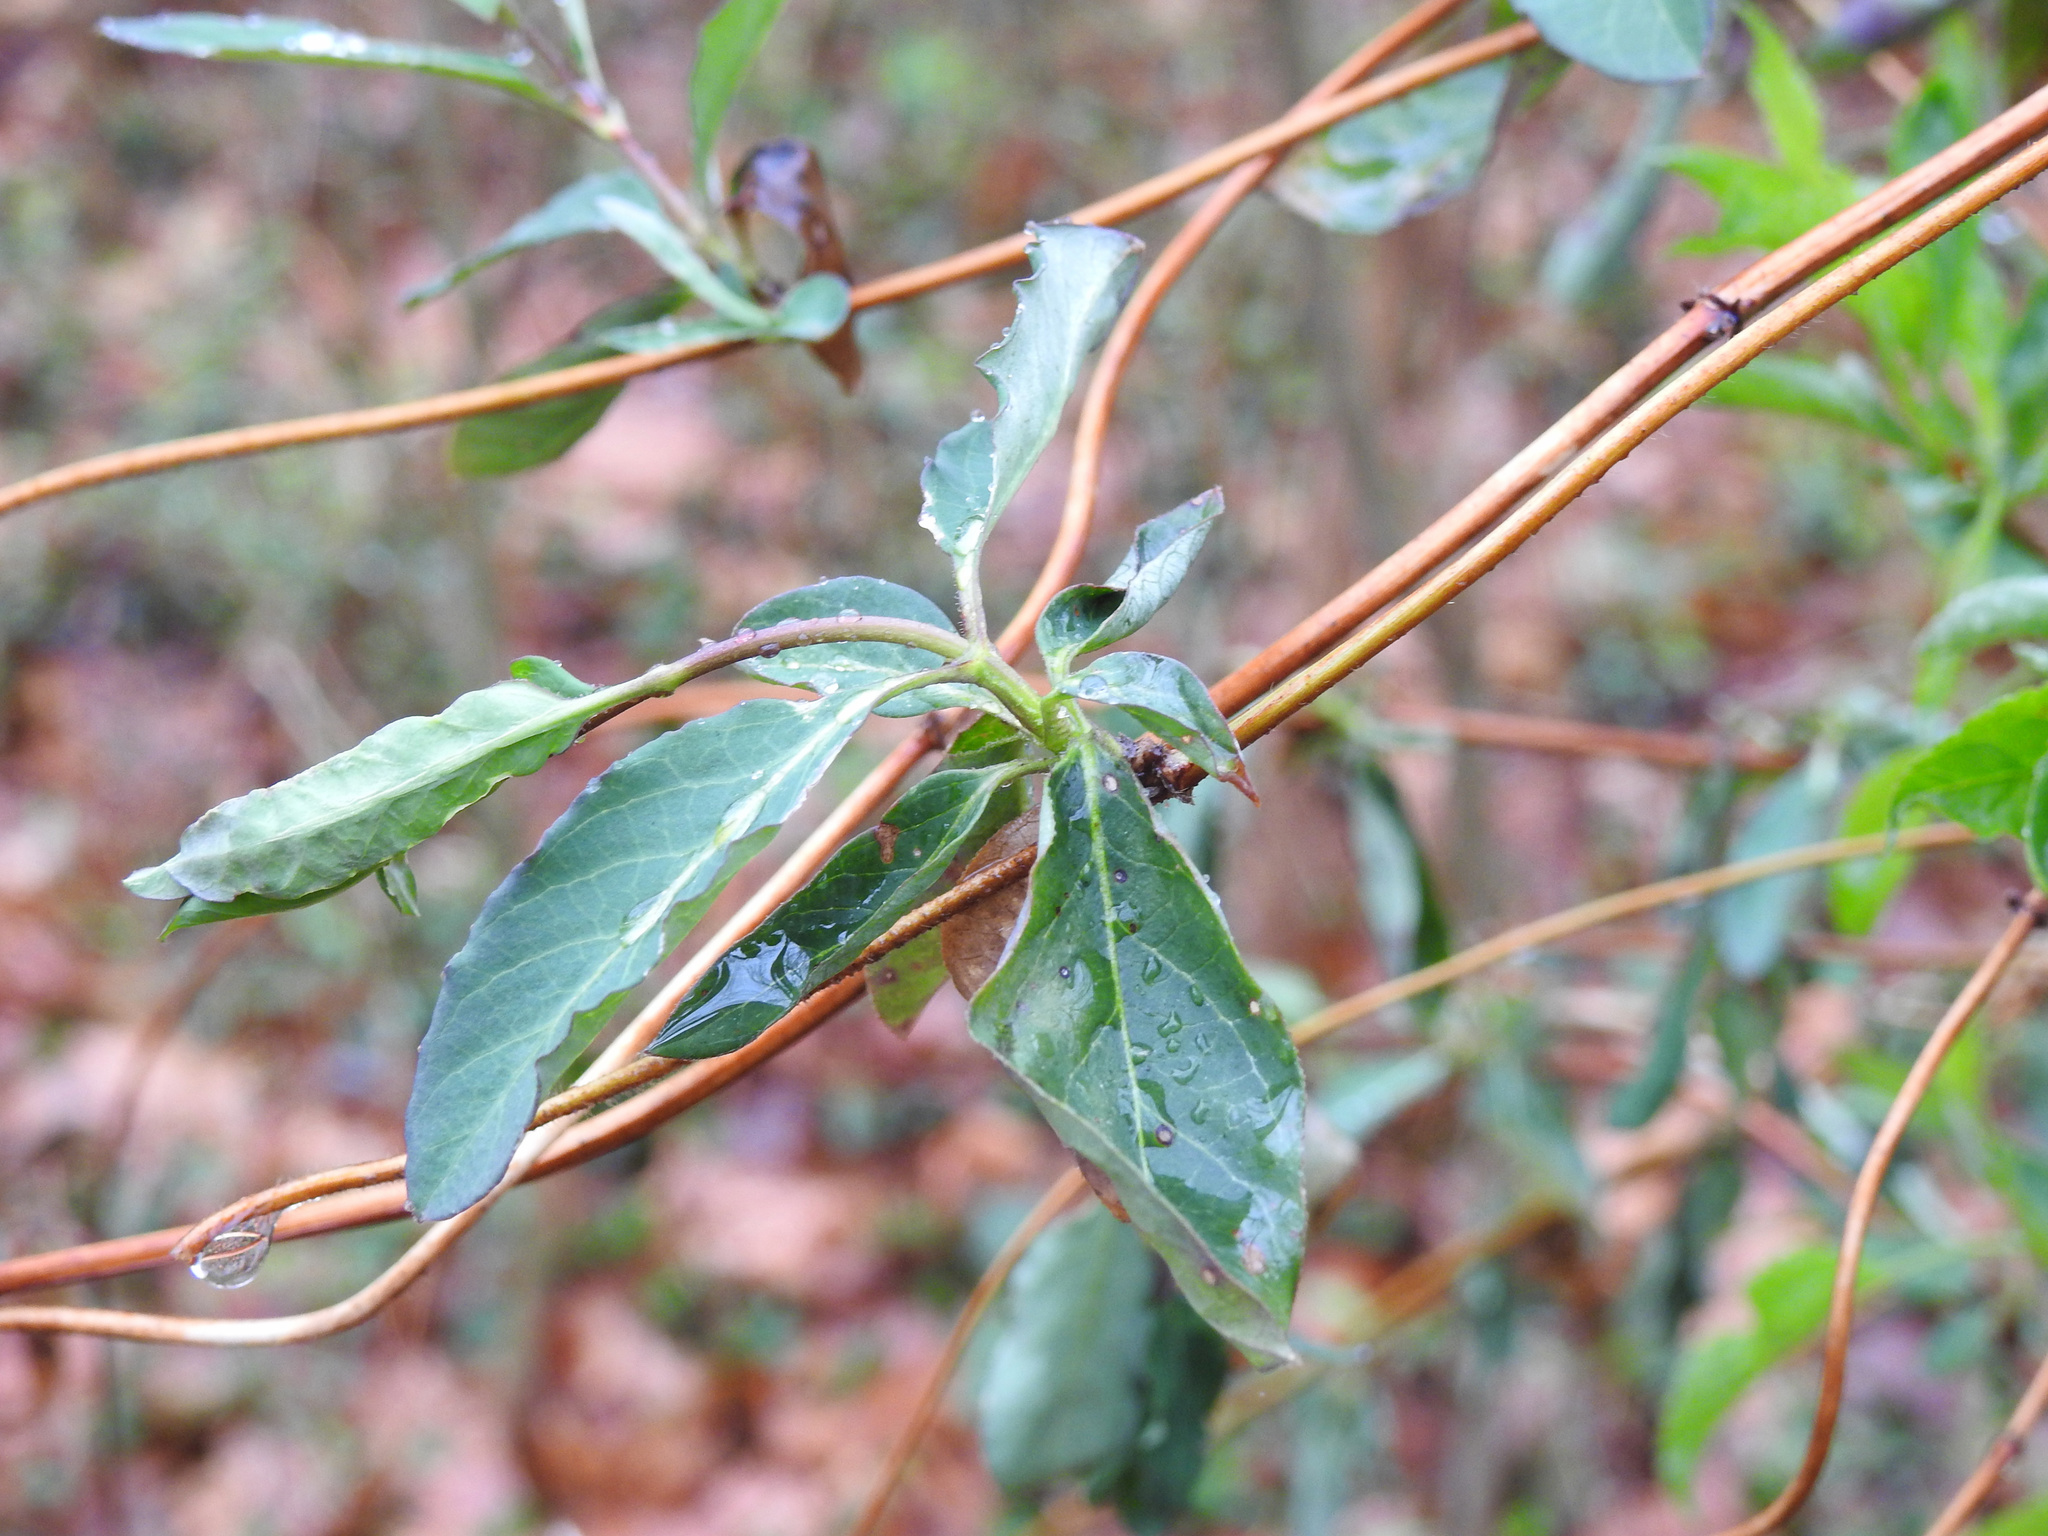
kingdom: Plantae
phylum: Tracheophyta
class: Magnoliopsida
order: Dipsacales
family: Caprifoliaceae
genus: Lonicera
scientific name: Lonicera japonica
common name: Japanese honeysuckle
